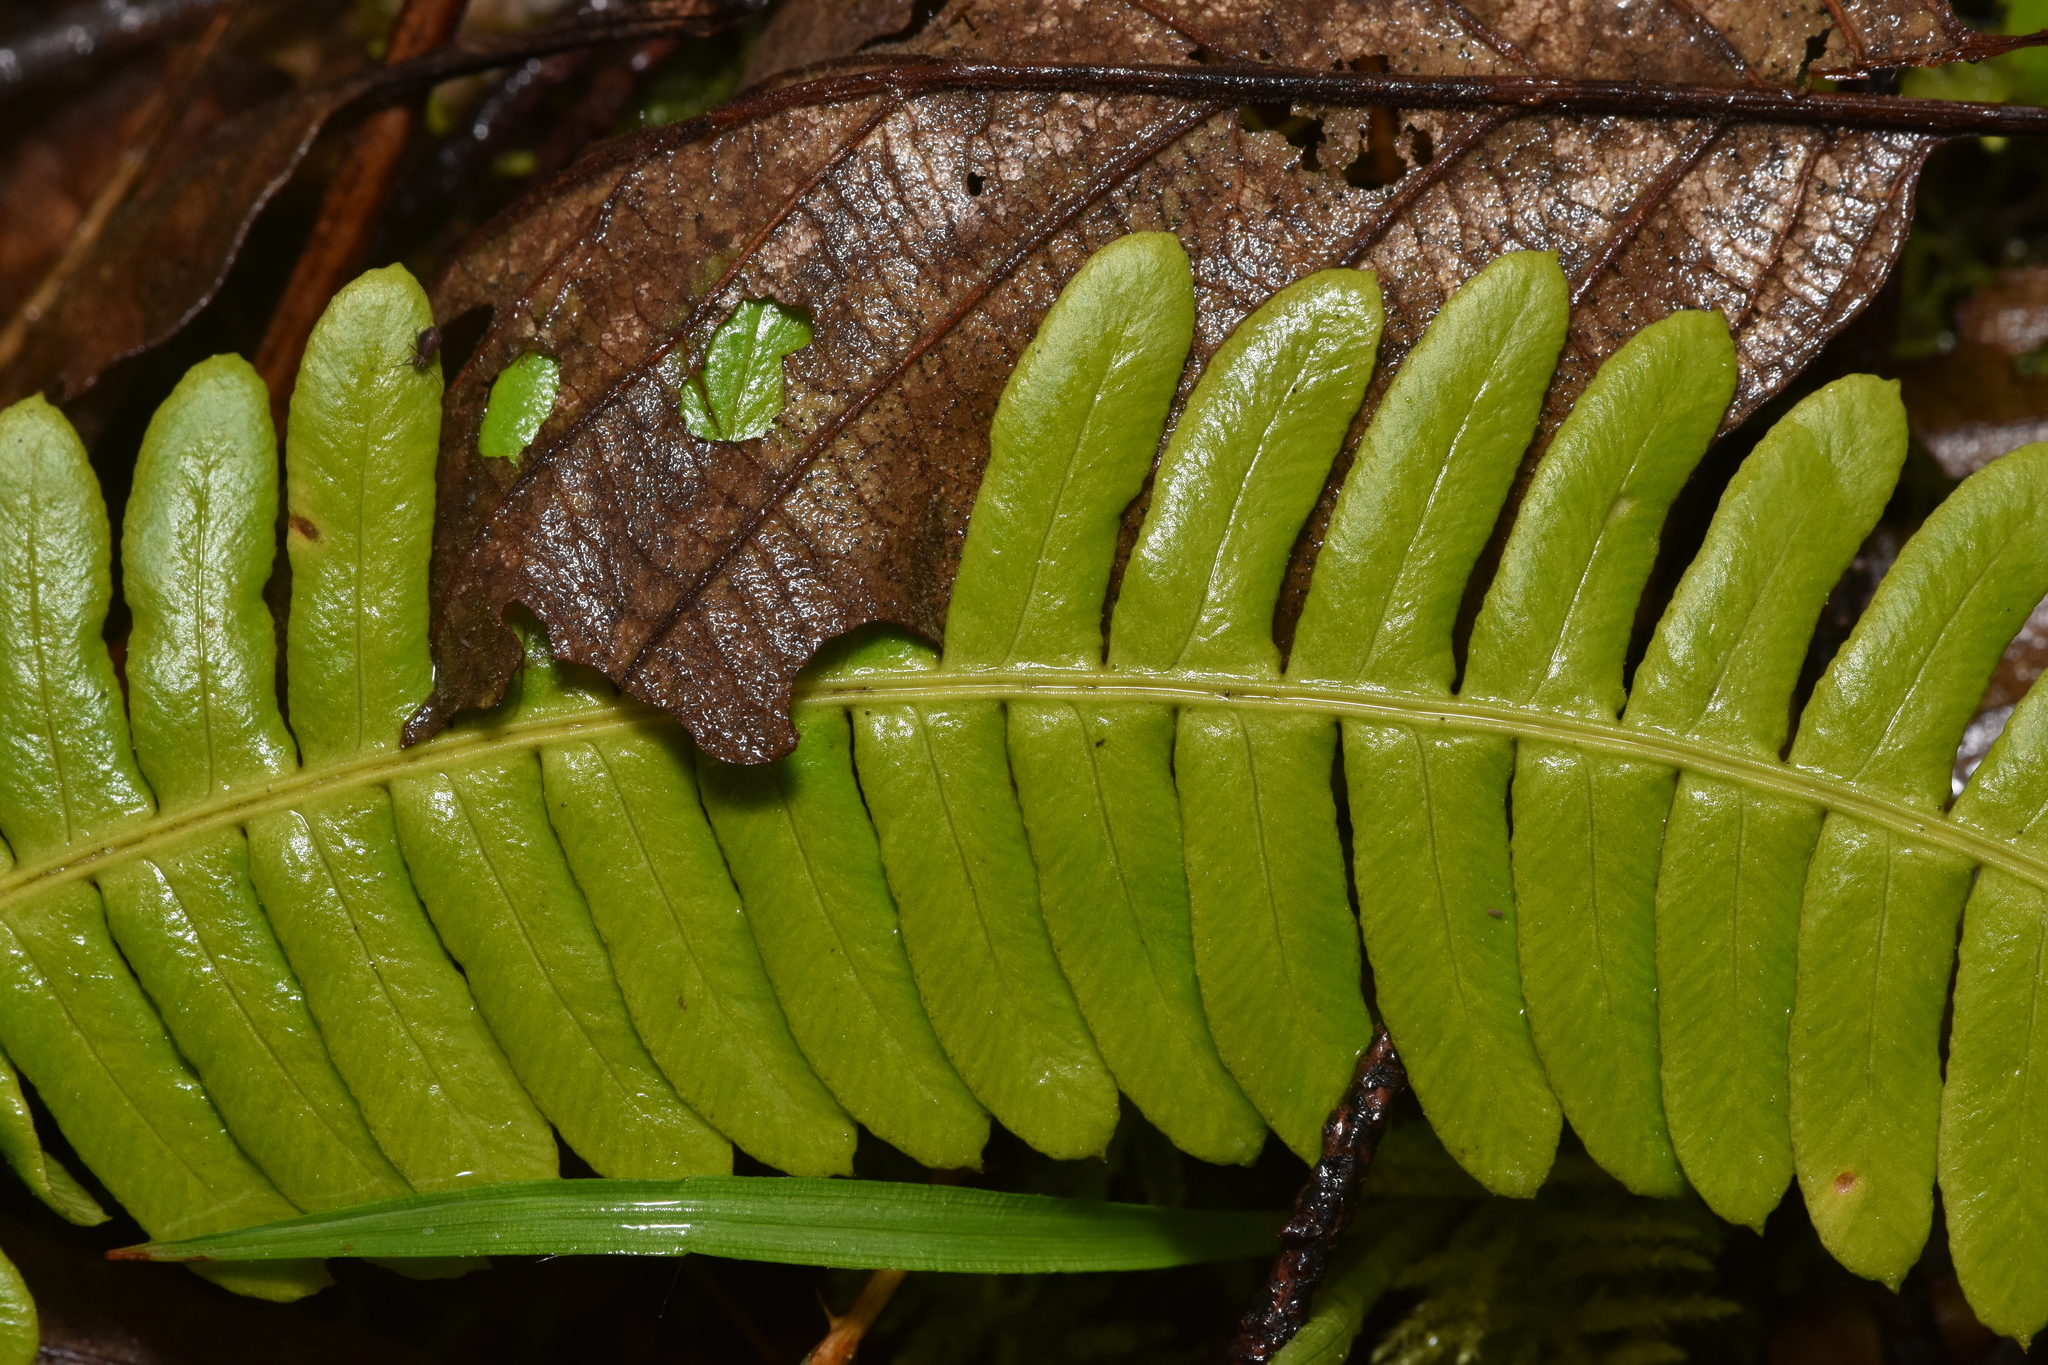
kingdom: Plantae
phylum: Tracheophyta
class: Polypodiopsida
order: Polypodiales
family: Blechnaceae
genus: Struthiopteris
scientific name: Struthiopteris spicant
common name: Deer fern
